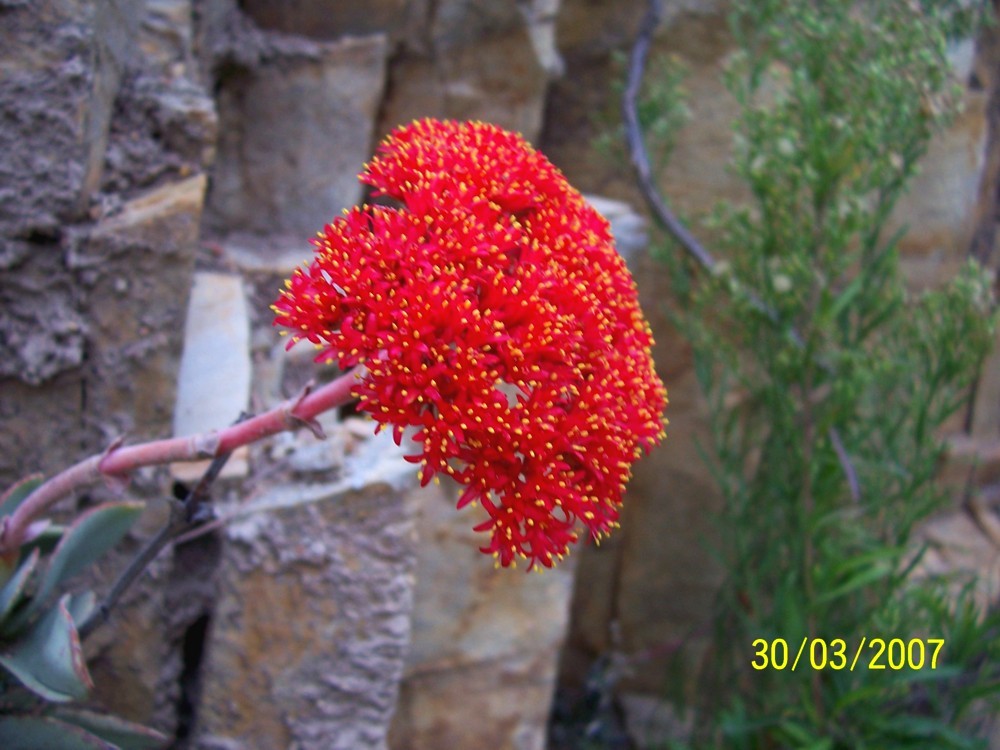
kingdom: Plantae
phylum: Tracheophyta
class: Magnoliopsida
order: Saxifragales
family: Crassulaceae
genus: Crassula
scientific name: Crassula perfoliata
